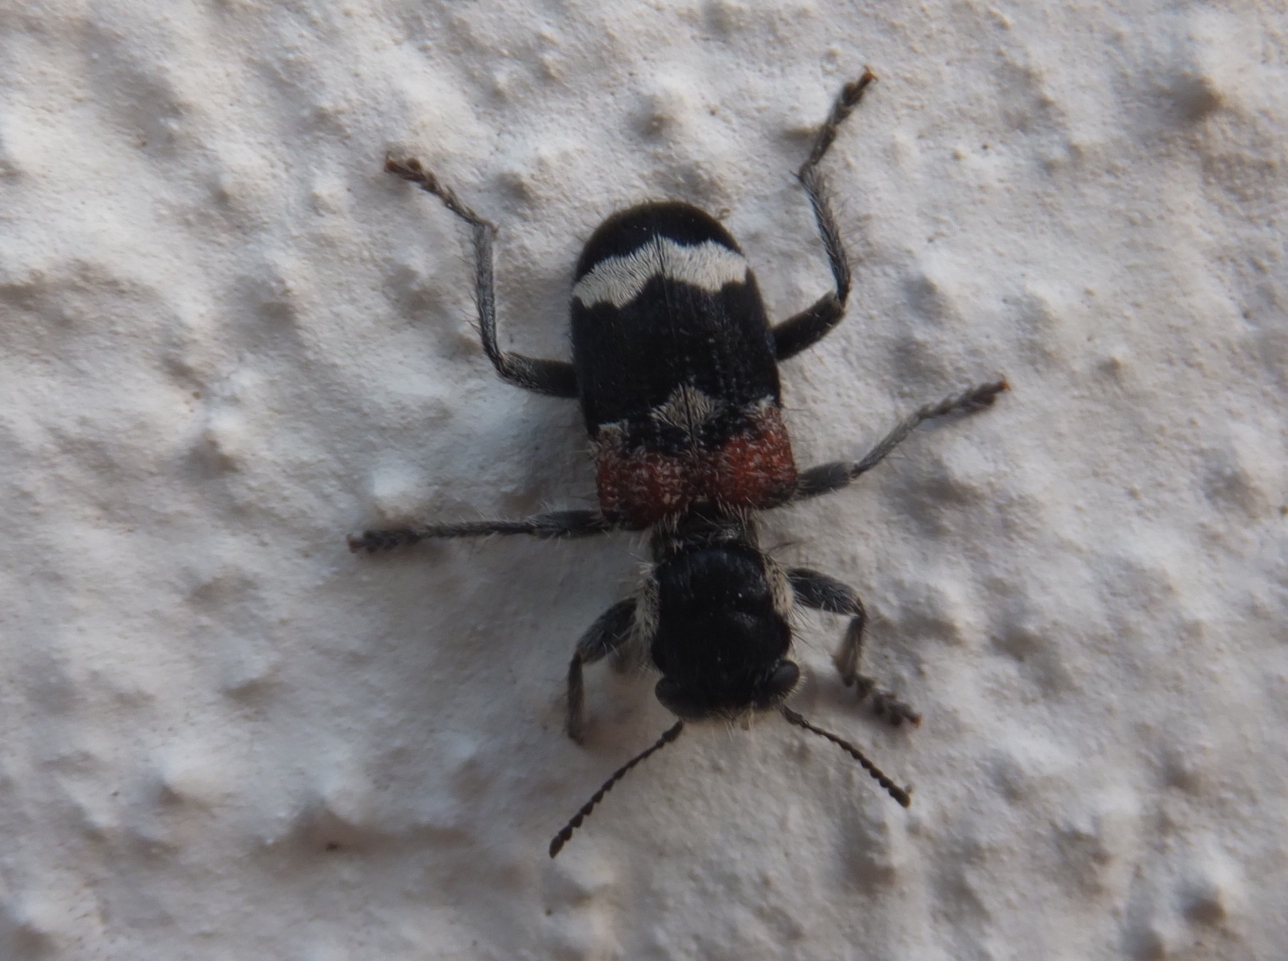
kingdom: Animalia
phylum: Arthropoda
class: Insecta
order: Coleoptera
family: Cleridae
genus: Clerus
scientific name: Clerus mutillarius
